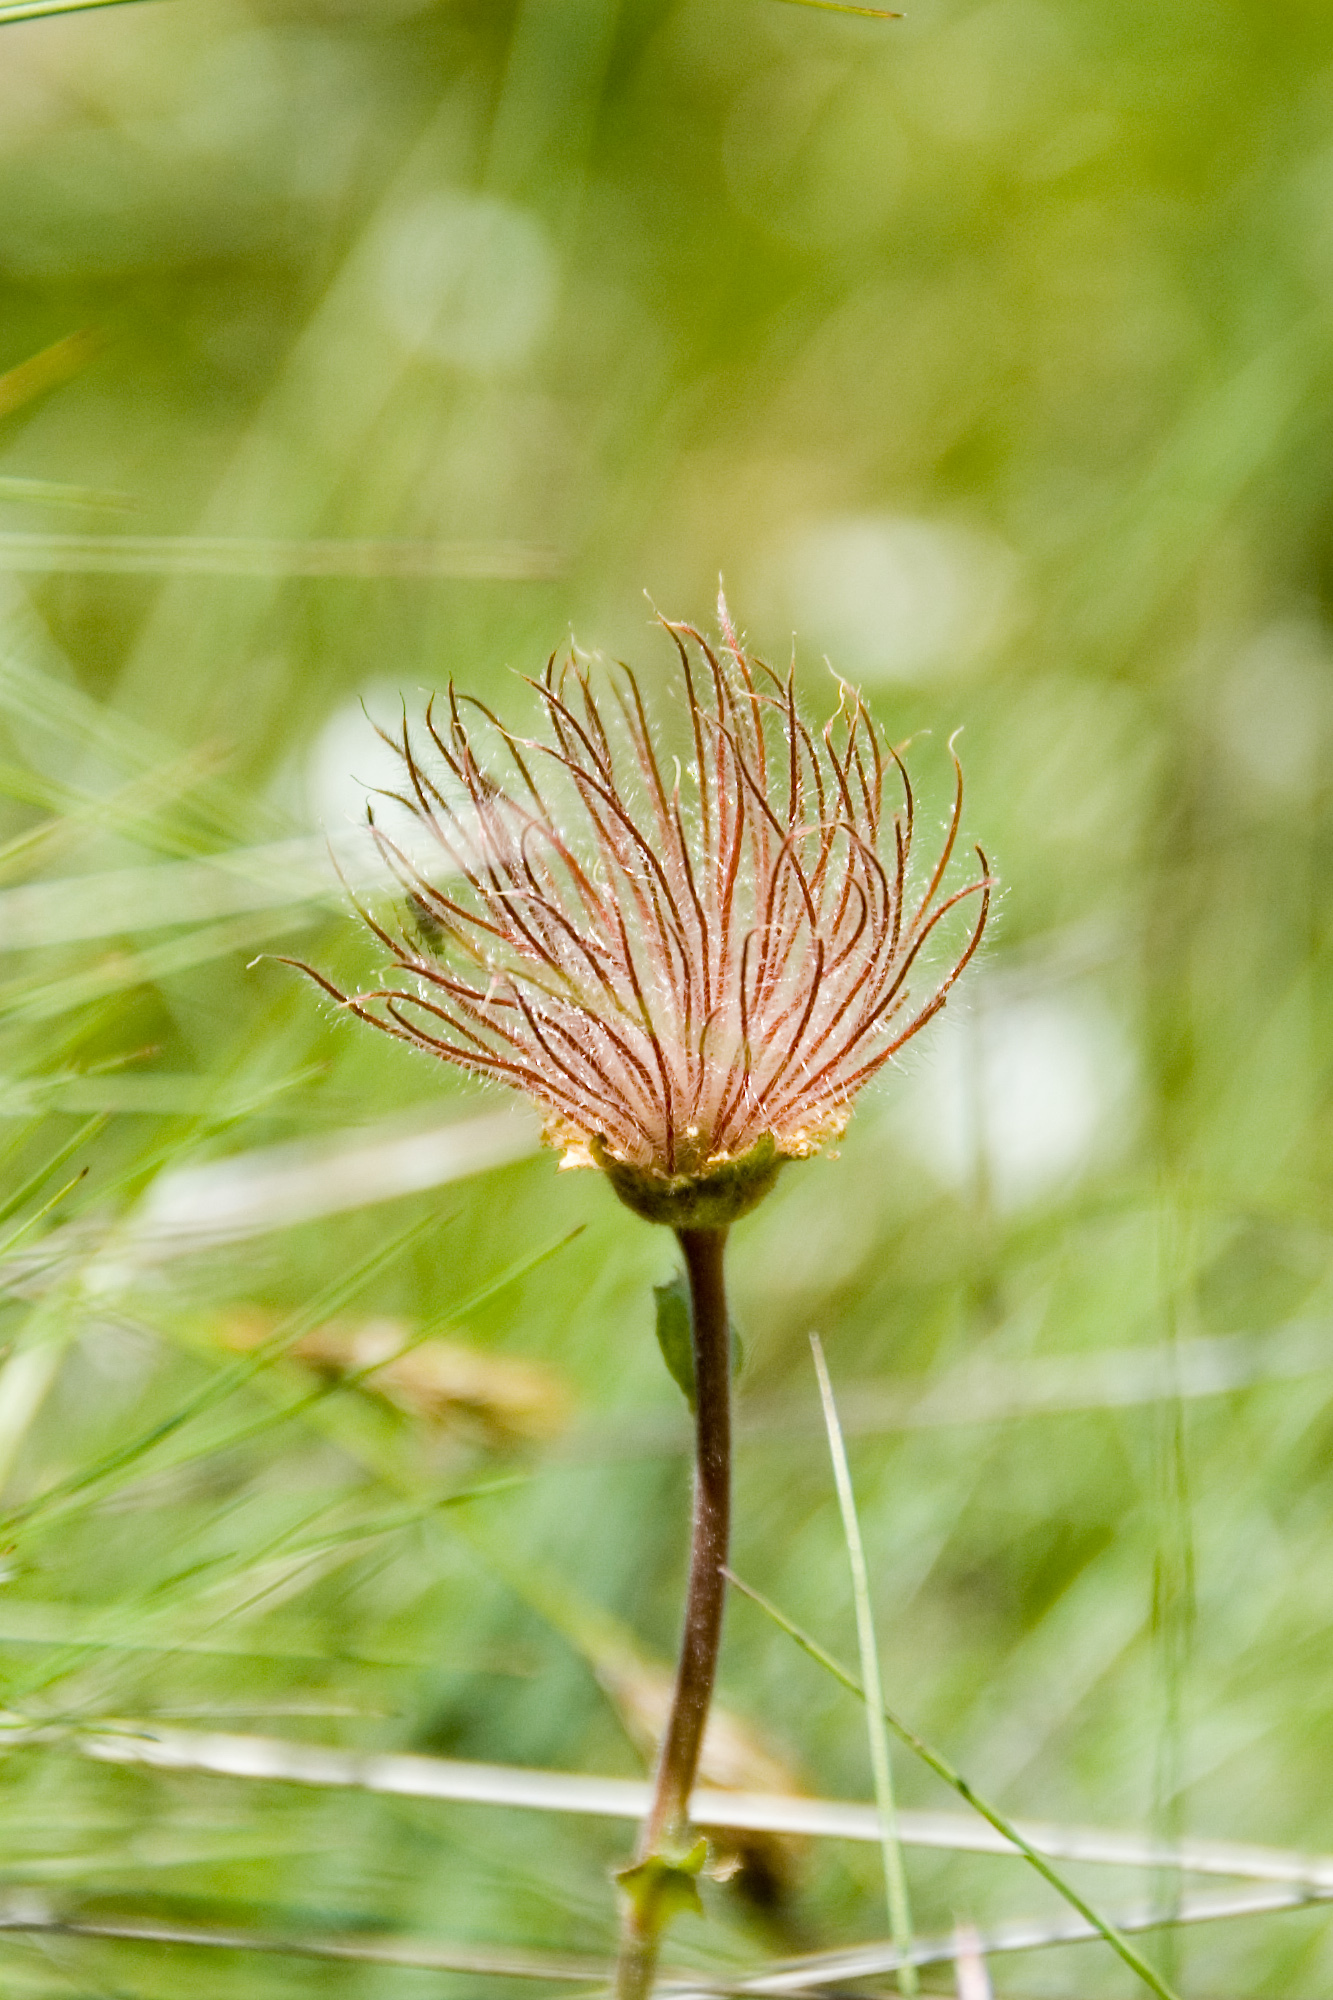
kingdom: Plantae
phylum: Tracheophyta
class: Magnoliopsida
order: Rosales
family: Rosaceae
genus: Geum
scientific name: Geum montanum
